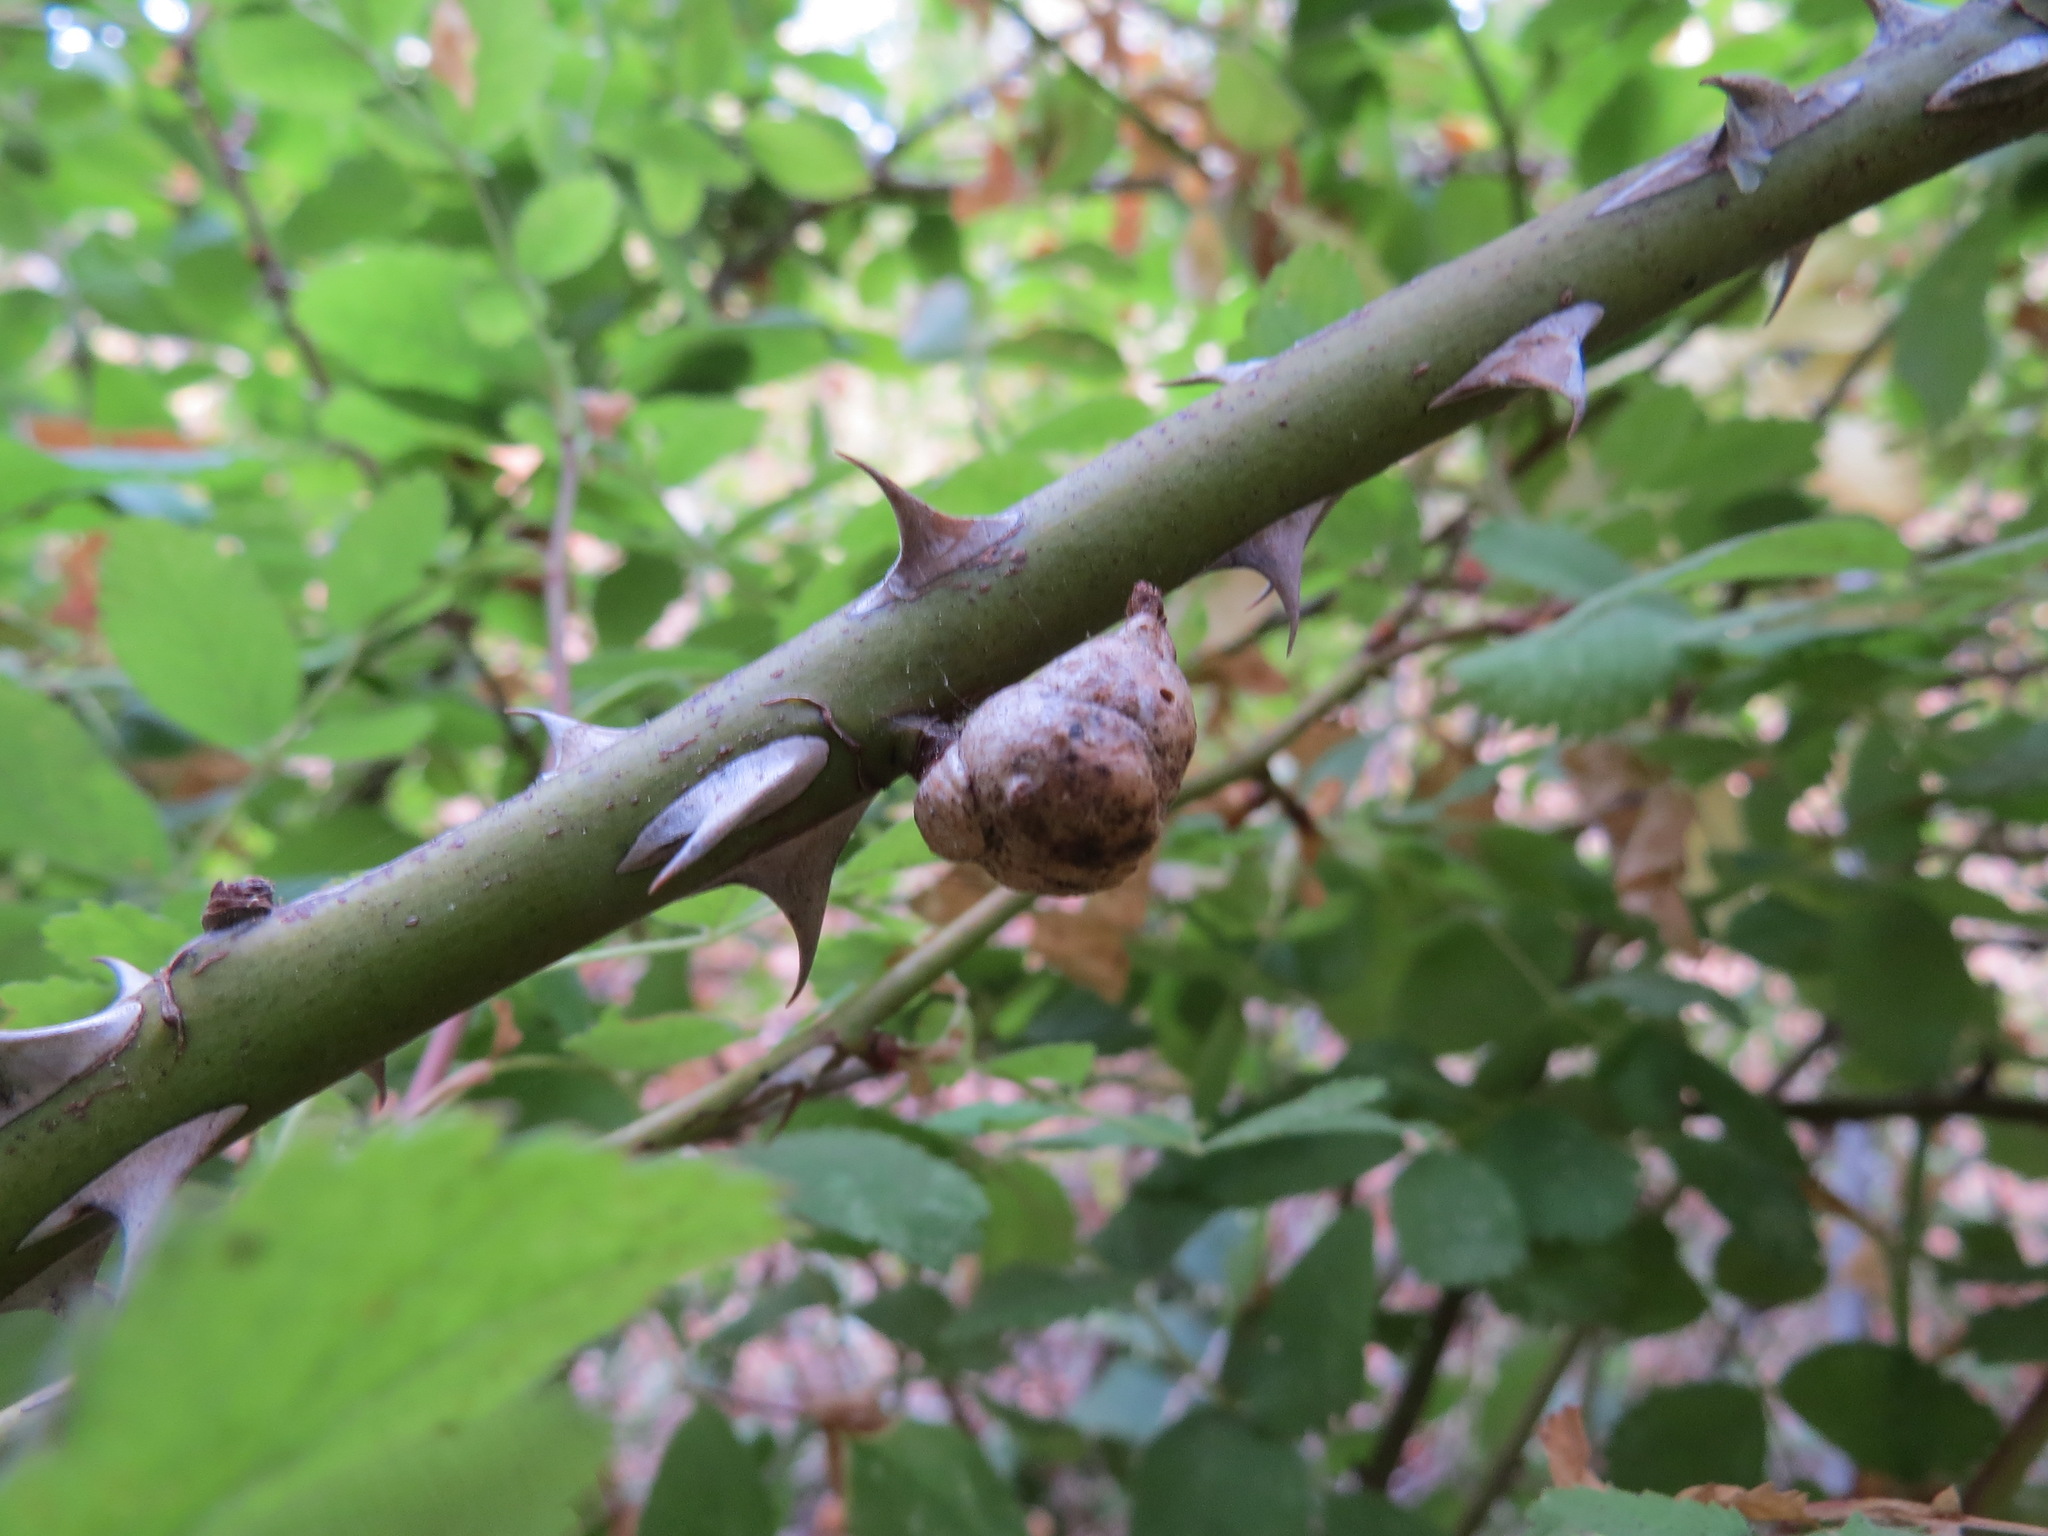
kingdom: Animalia
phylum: Arthropoda
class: Insecta
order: Hymenoptera
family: Cynipidae
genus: Diplolepis
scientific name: Diplolepis
